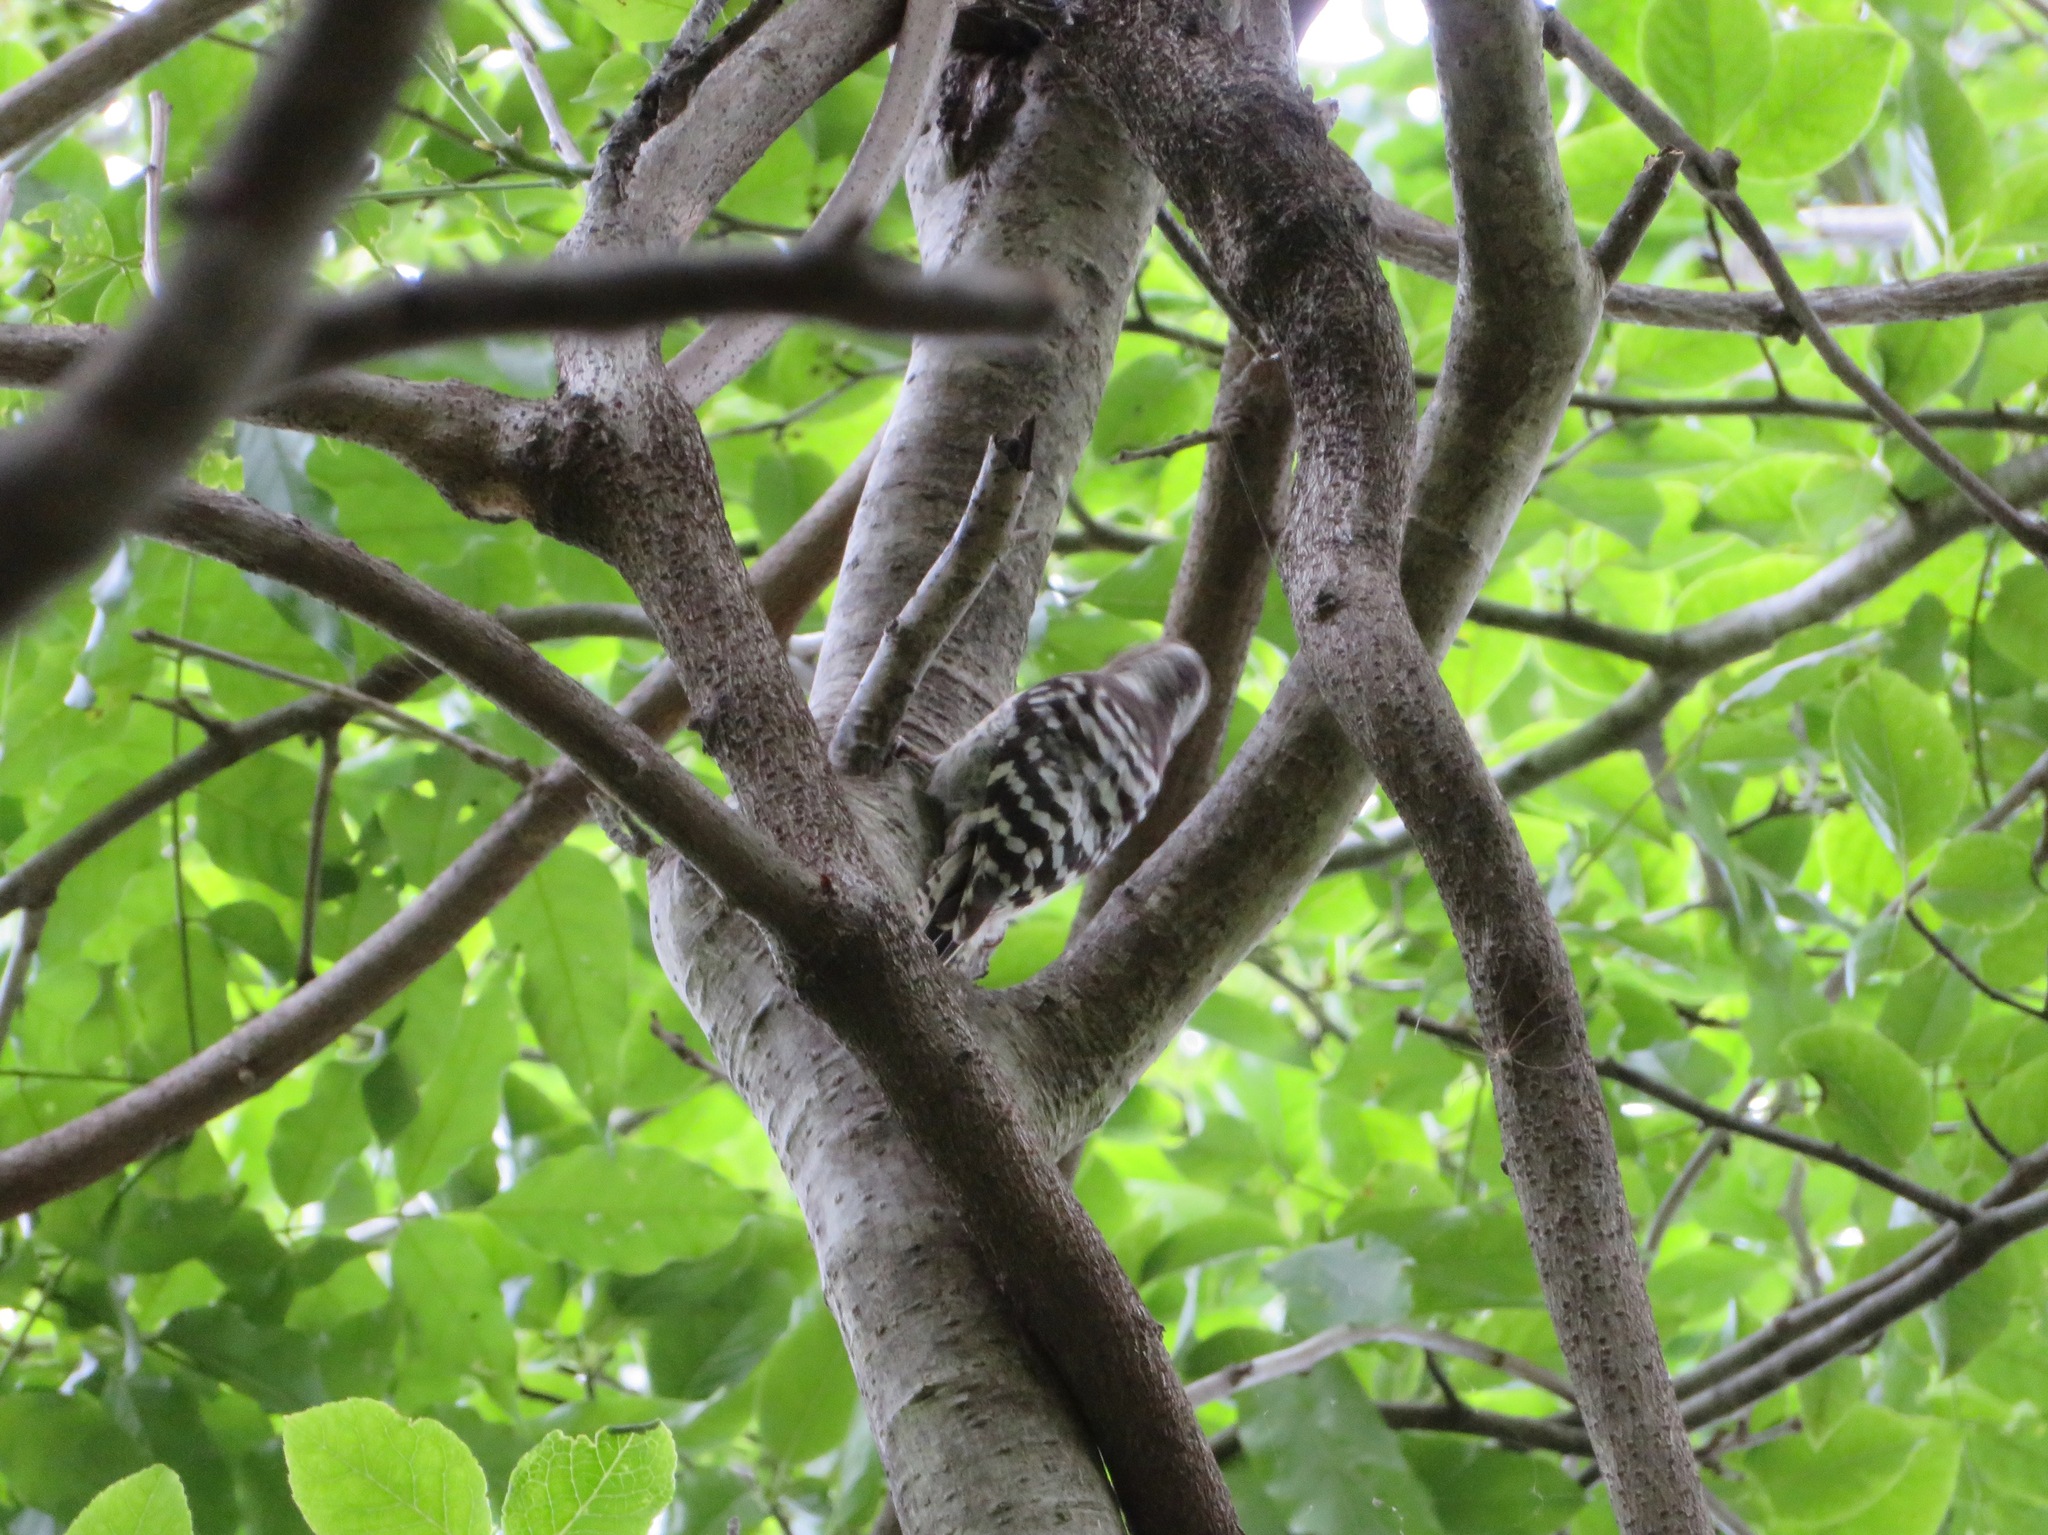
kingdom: Animalia
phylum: Chordata
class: Aves
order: Piciformes
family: Picidae
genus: Yungipicus
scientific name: Yungipicus kizuki
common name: Japanese pygmy woodpecker
